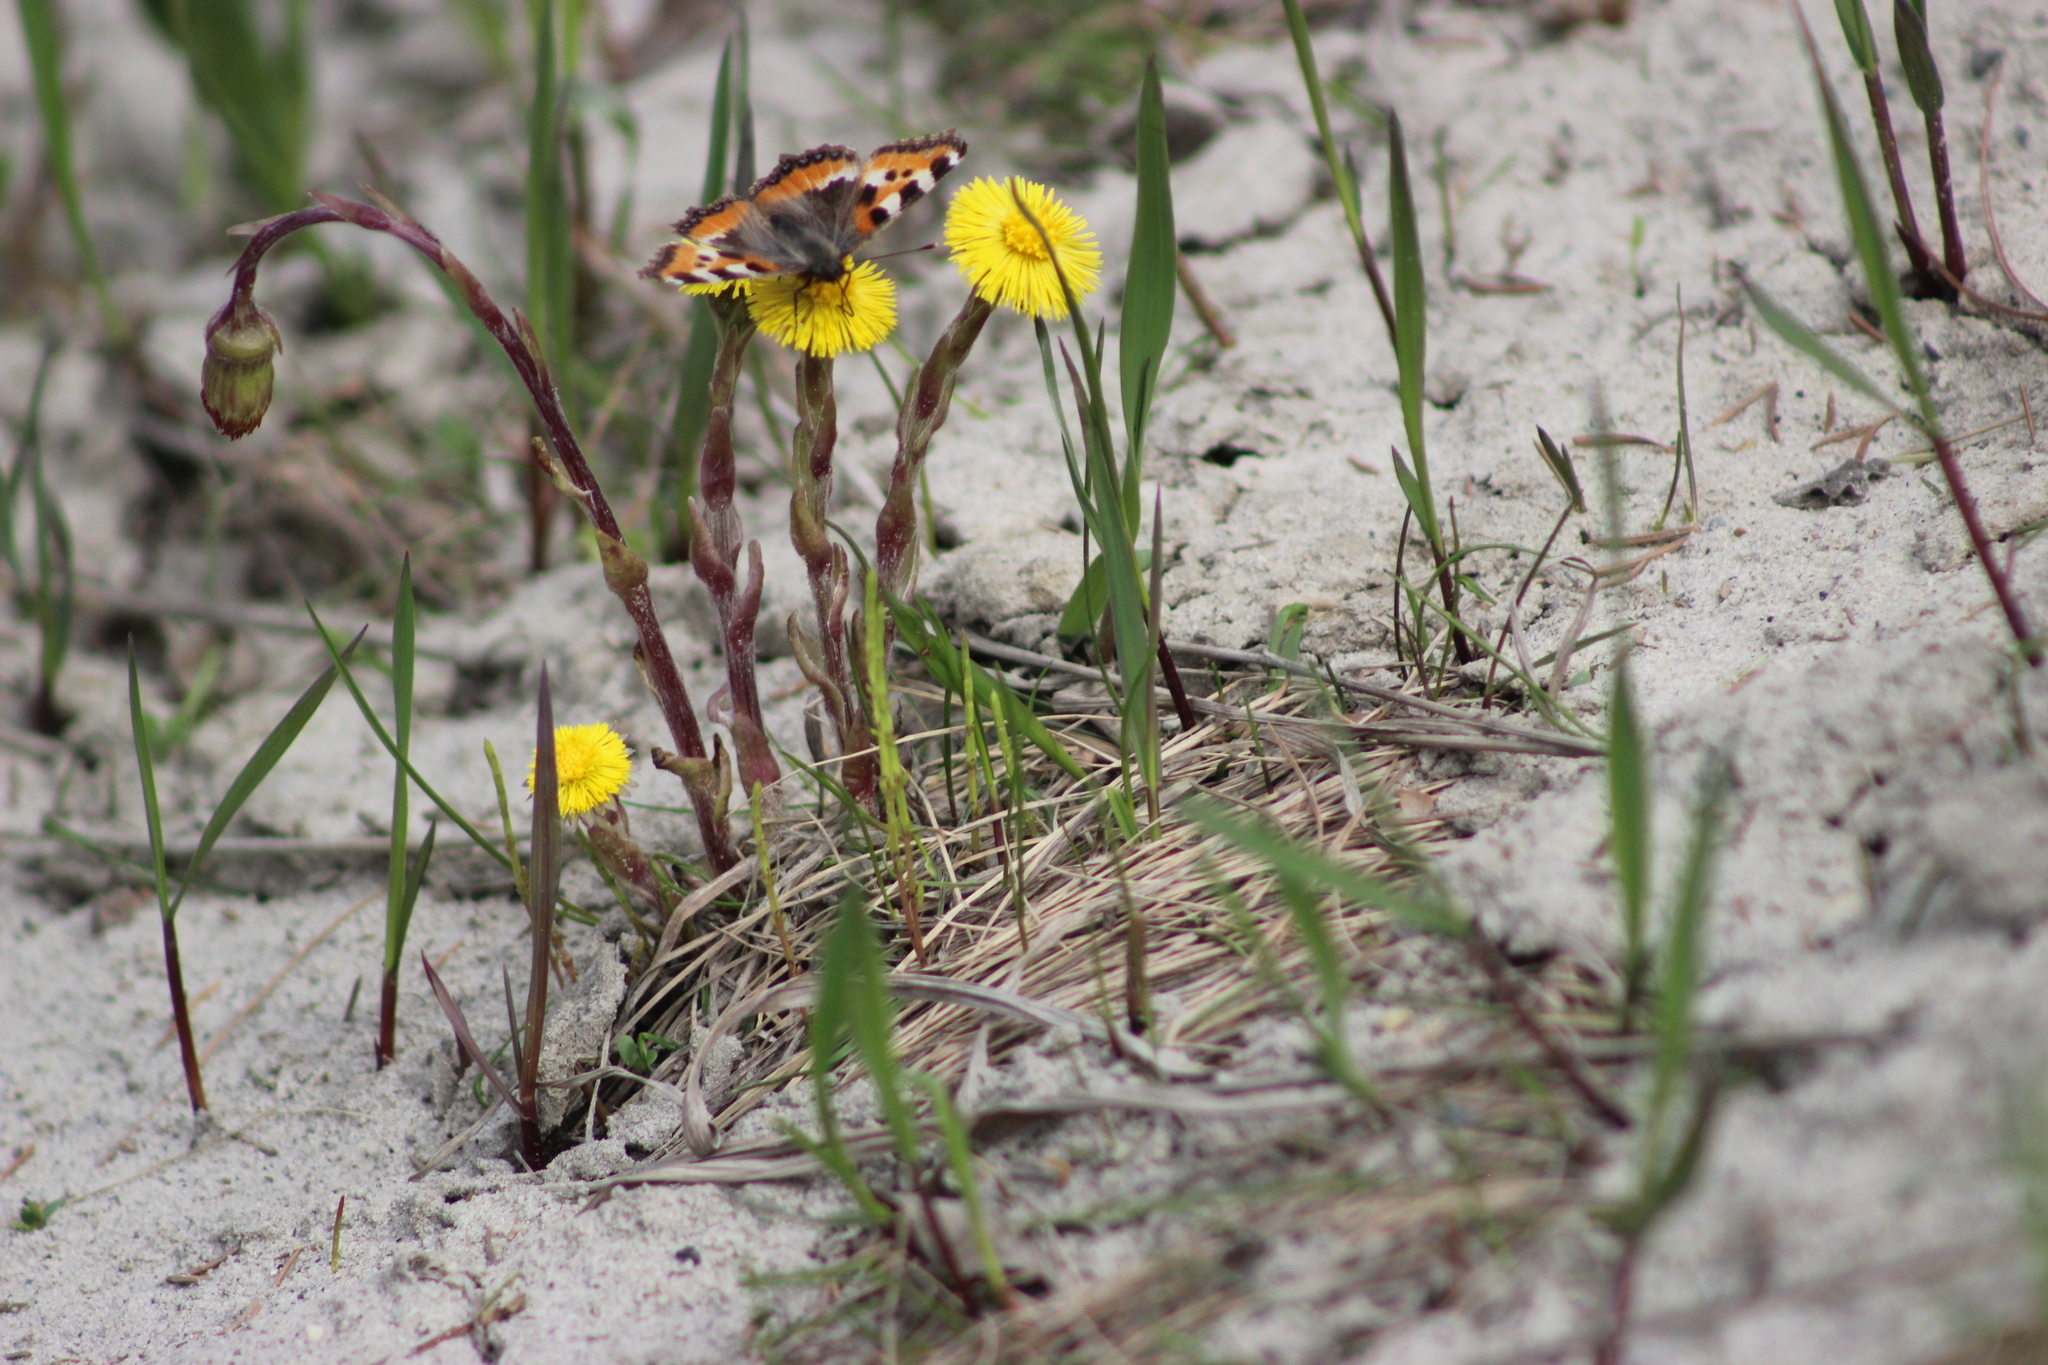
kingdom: Animalia
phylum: Arthropoda
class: Insecta
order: Lepidoptera
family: Nymphalidae
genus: Aglais
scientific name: Aglais urticae
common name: Small tortoiseshell
